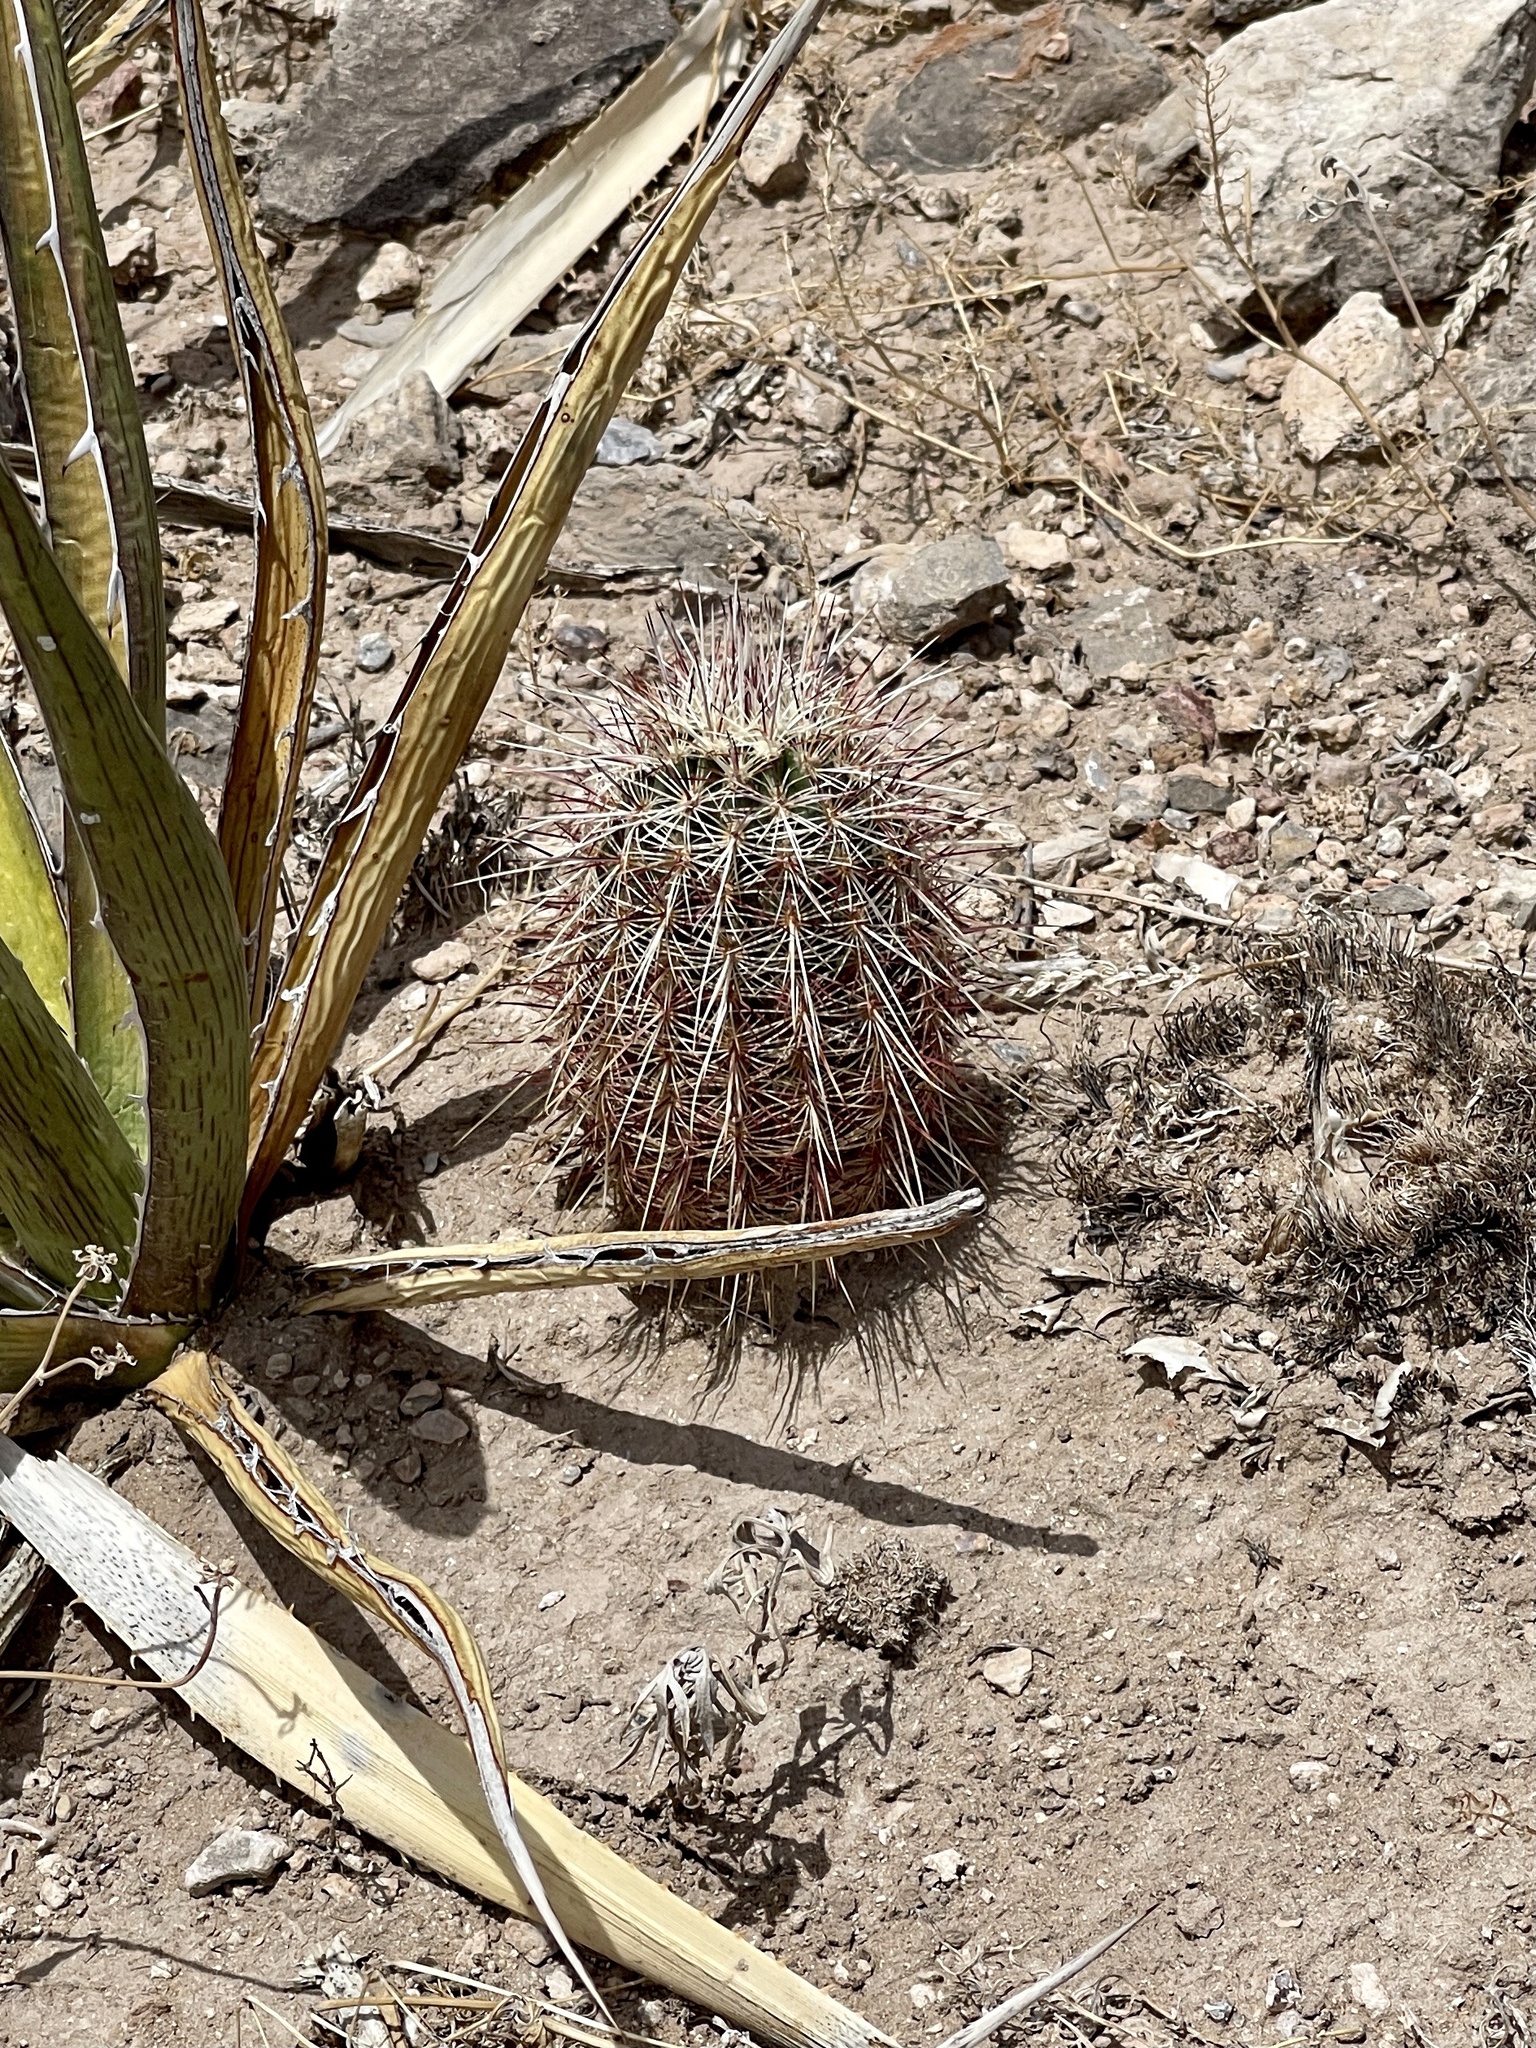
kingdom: Plantae
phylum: Tracheophyta
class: Magnoliopsida
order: Caryophyllales
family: Cactaceae
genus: Echinocereus
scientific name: Echinocereus viridiflorus
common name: Nylon hedgehog cactus
